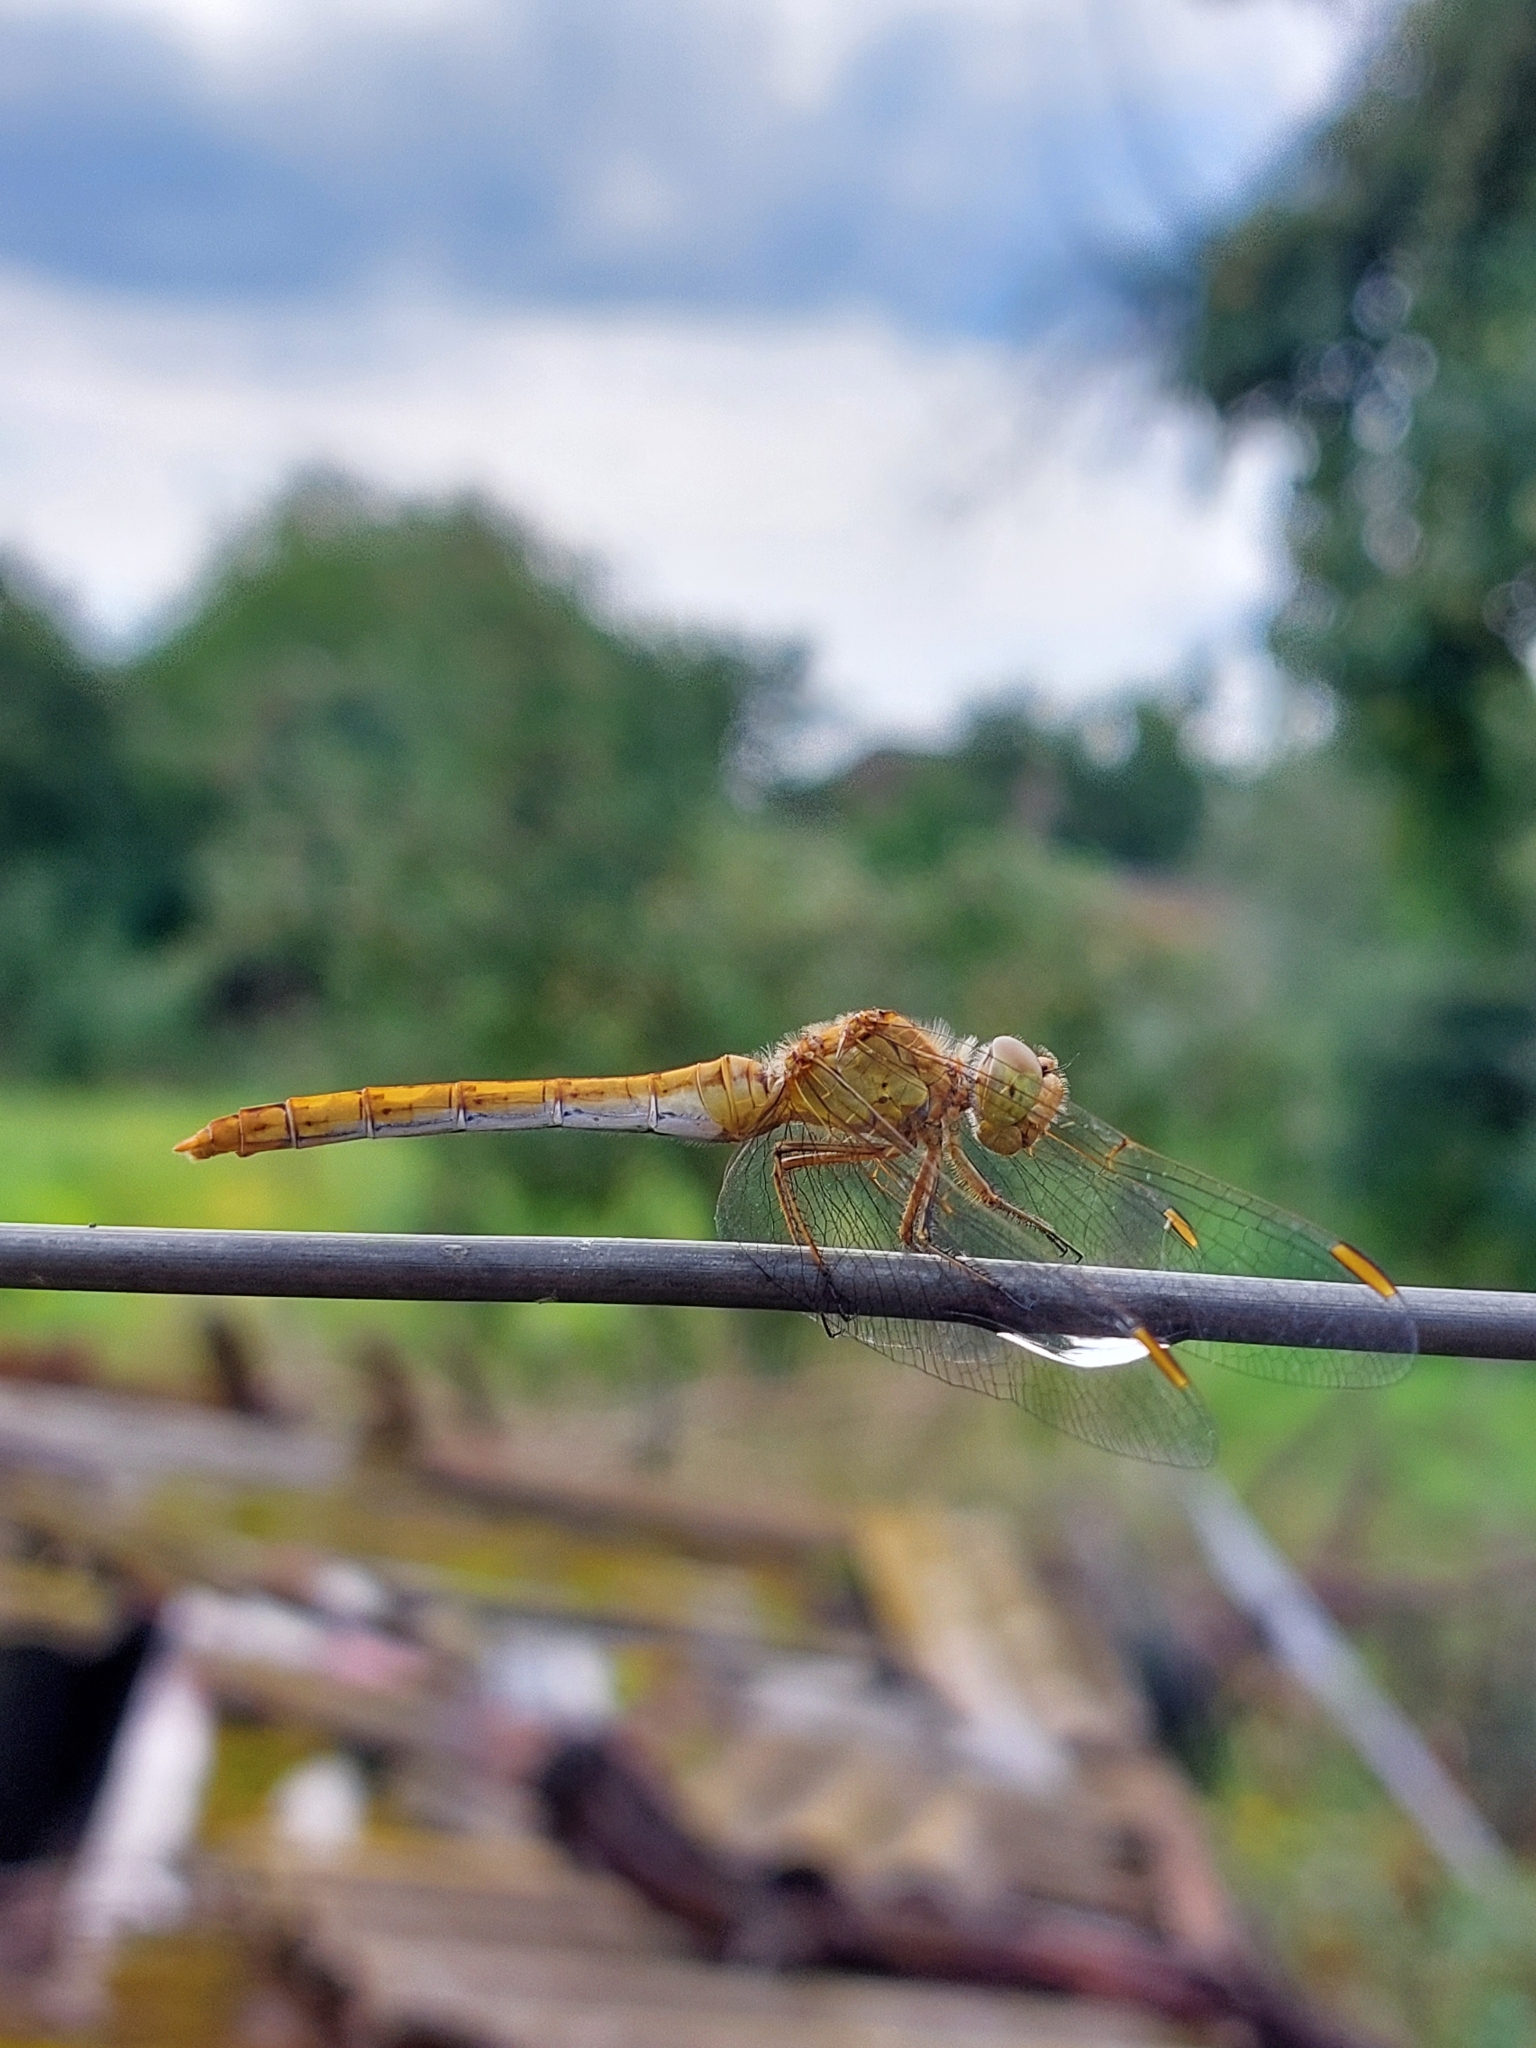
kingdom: Animalia
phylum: Arthropoda
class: Insecta
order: Odonata
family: Libellulidae
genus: Sympetrum
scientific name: Sympetrum meridionale
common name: Southern darter
